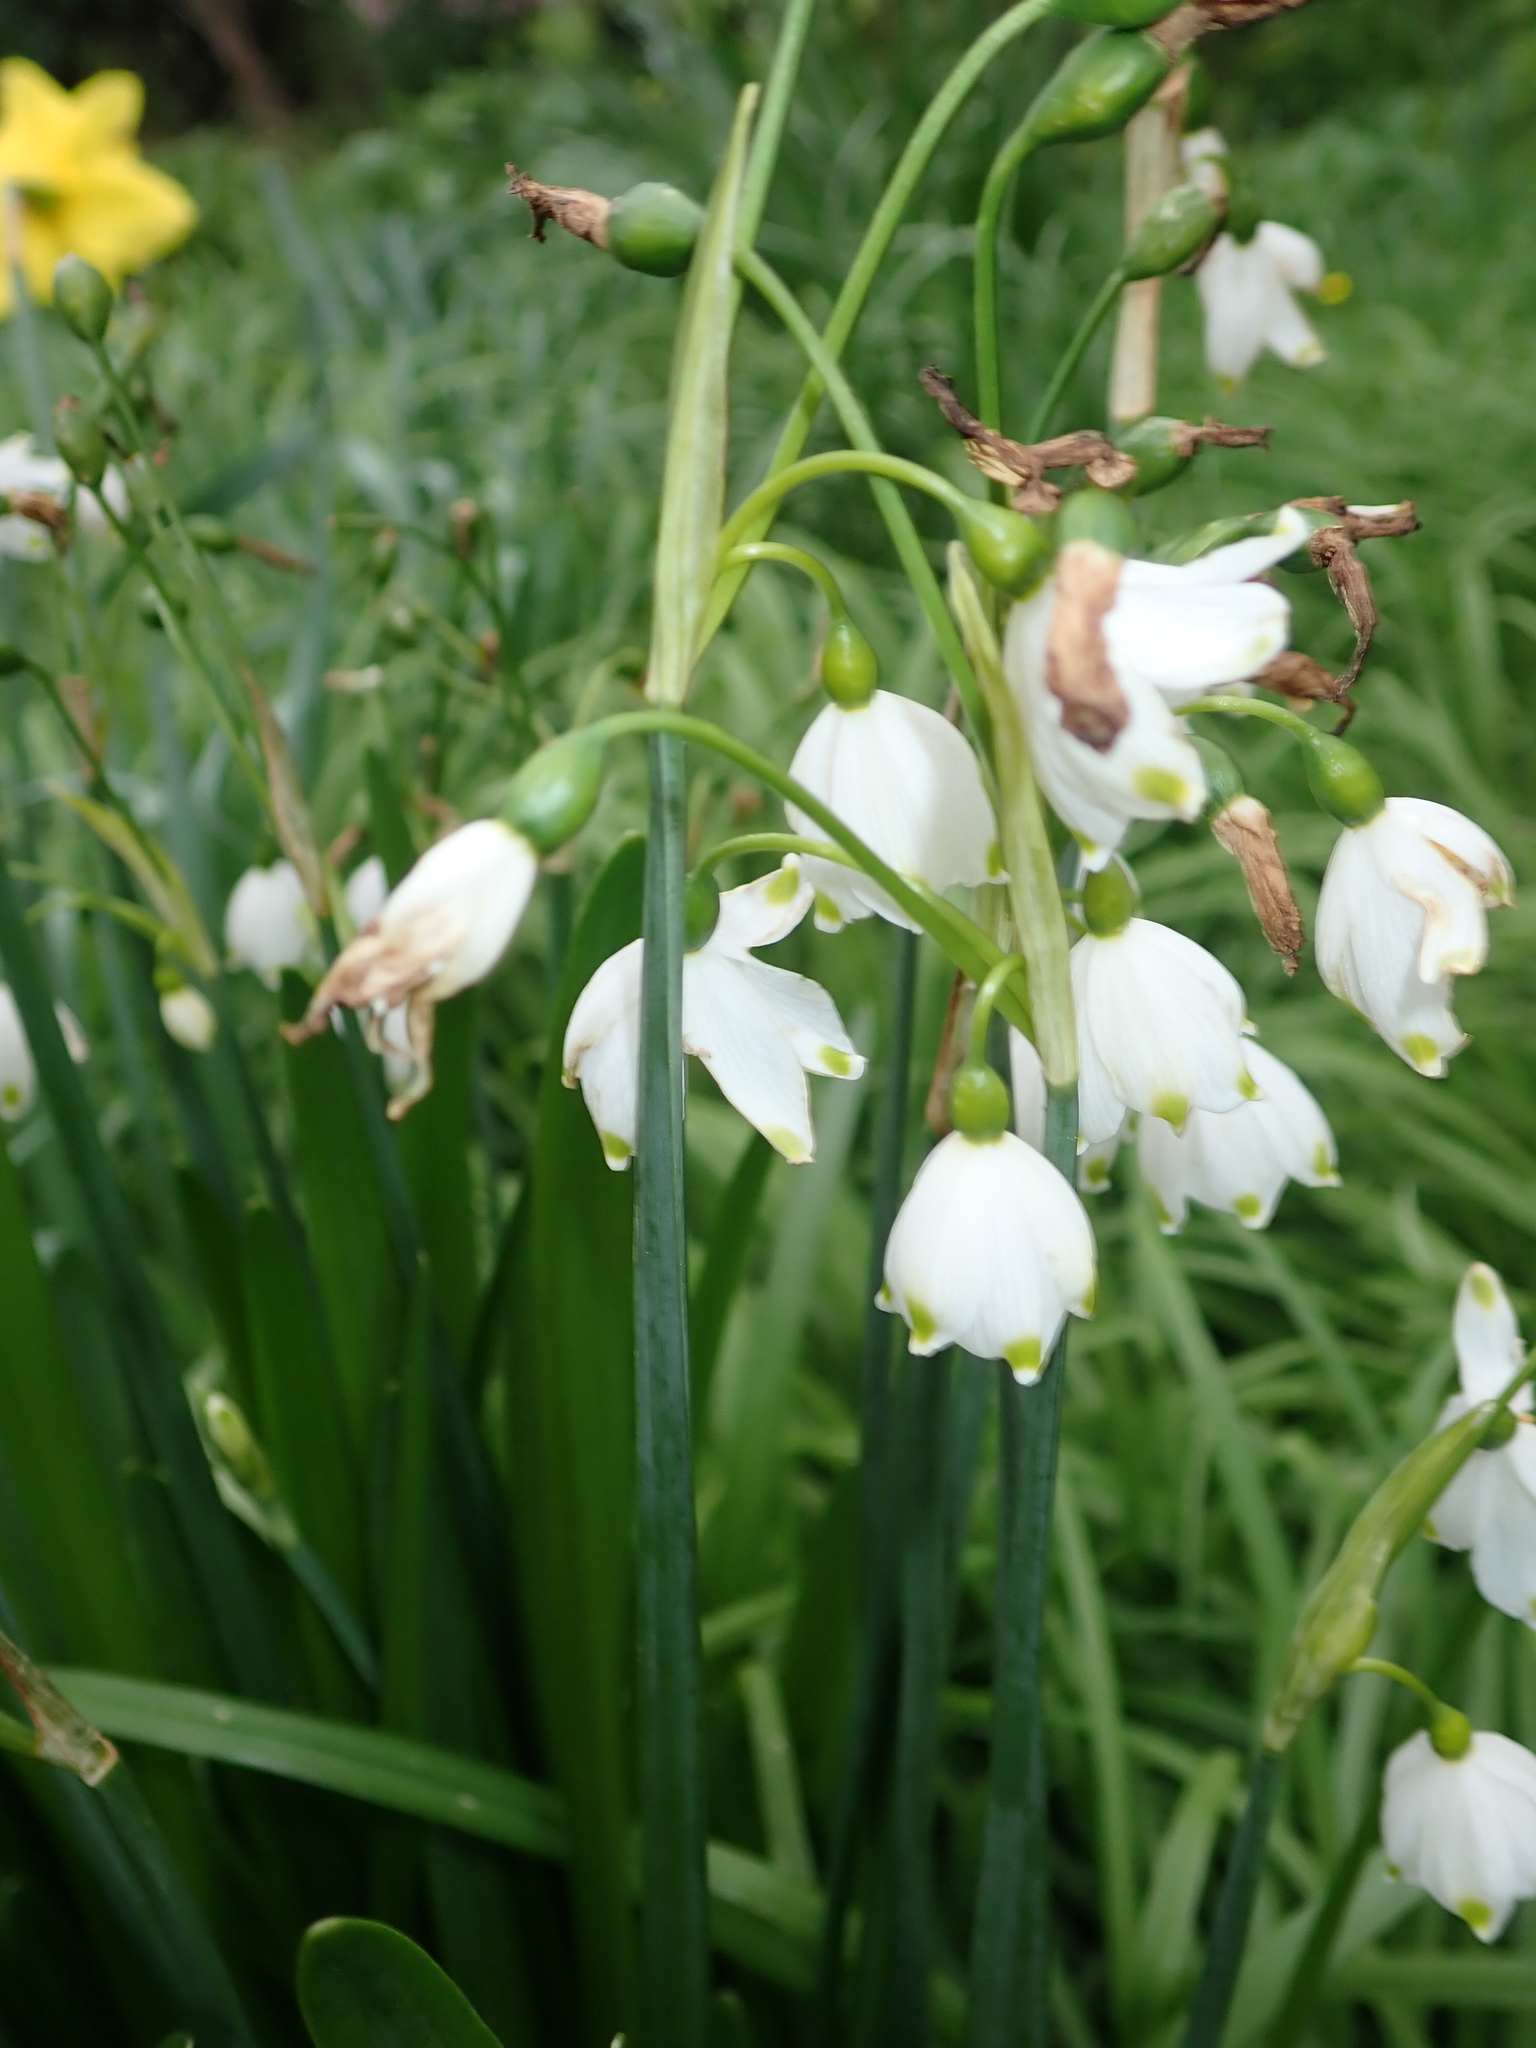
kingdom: Plantae
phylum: Tracheophyta
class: Liliopsida
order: Asparagales
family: Amaryllidaceae
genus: Leucojum
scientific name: Leucojum aestivum
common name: Summer snowflake
